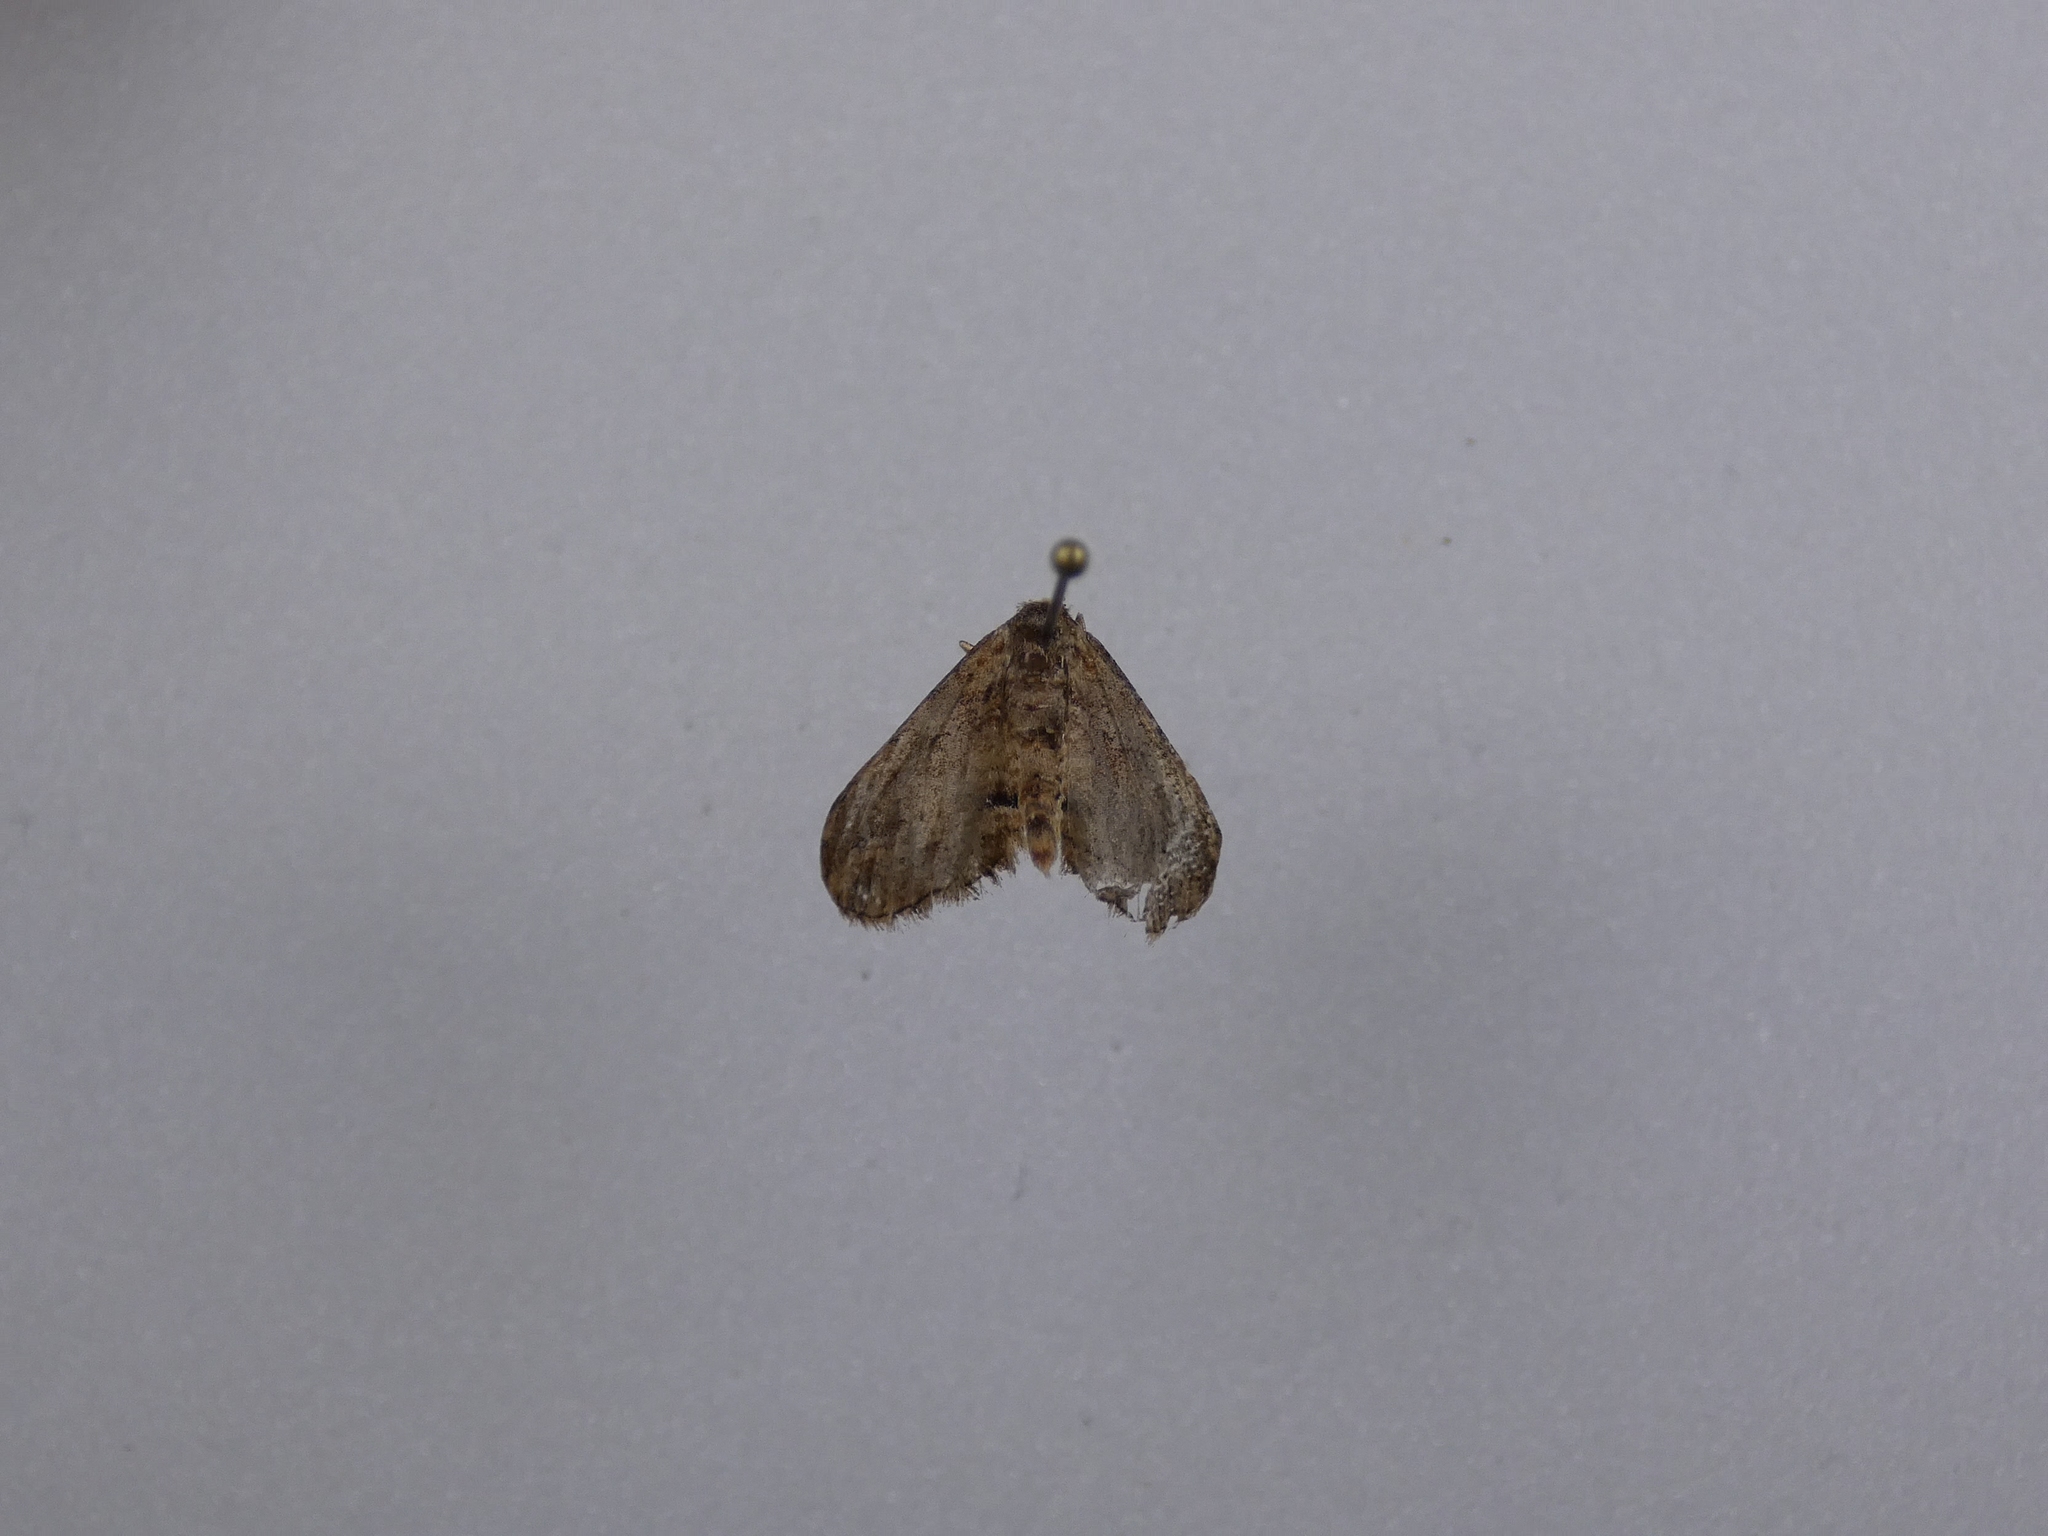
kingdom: Animalia
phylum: Arthropoda
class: Insecta
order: Lepidoptera
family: Geometridae
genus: Chloroclystis
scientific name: Chloroclystis filata
